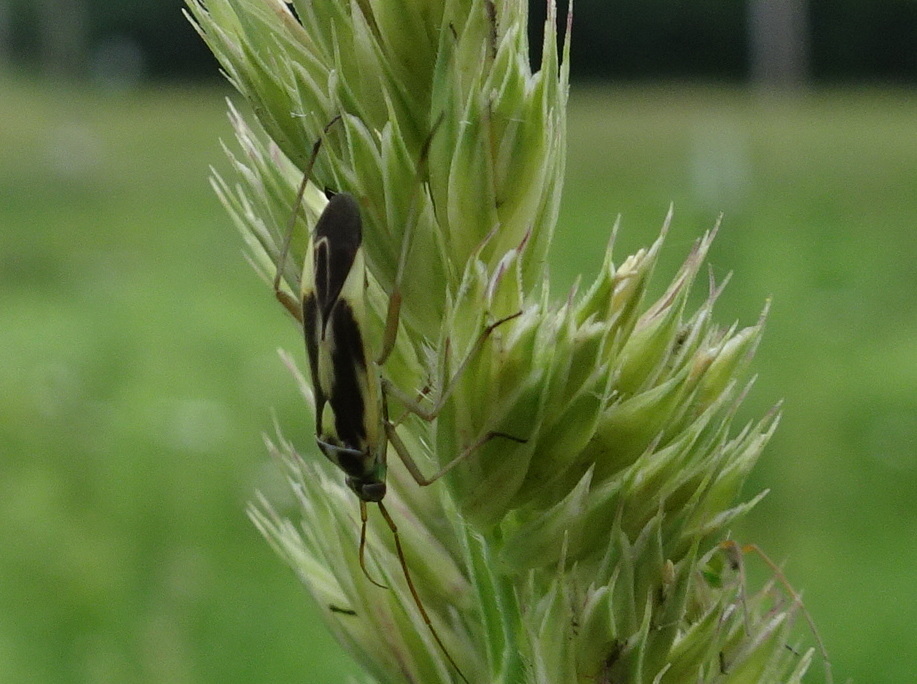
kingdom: Animalia
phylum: Arthropoda
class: Insecta
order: Hemiptera
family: Miridae
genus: Stenotus
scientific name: Stenotus binotatus
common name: Plant bug
